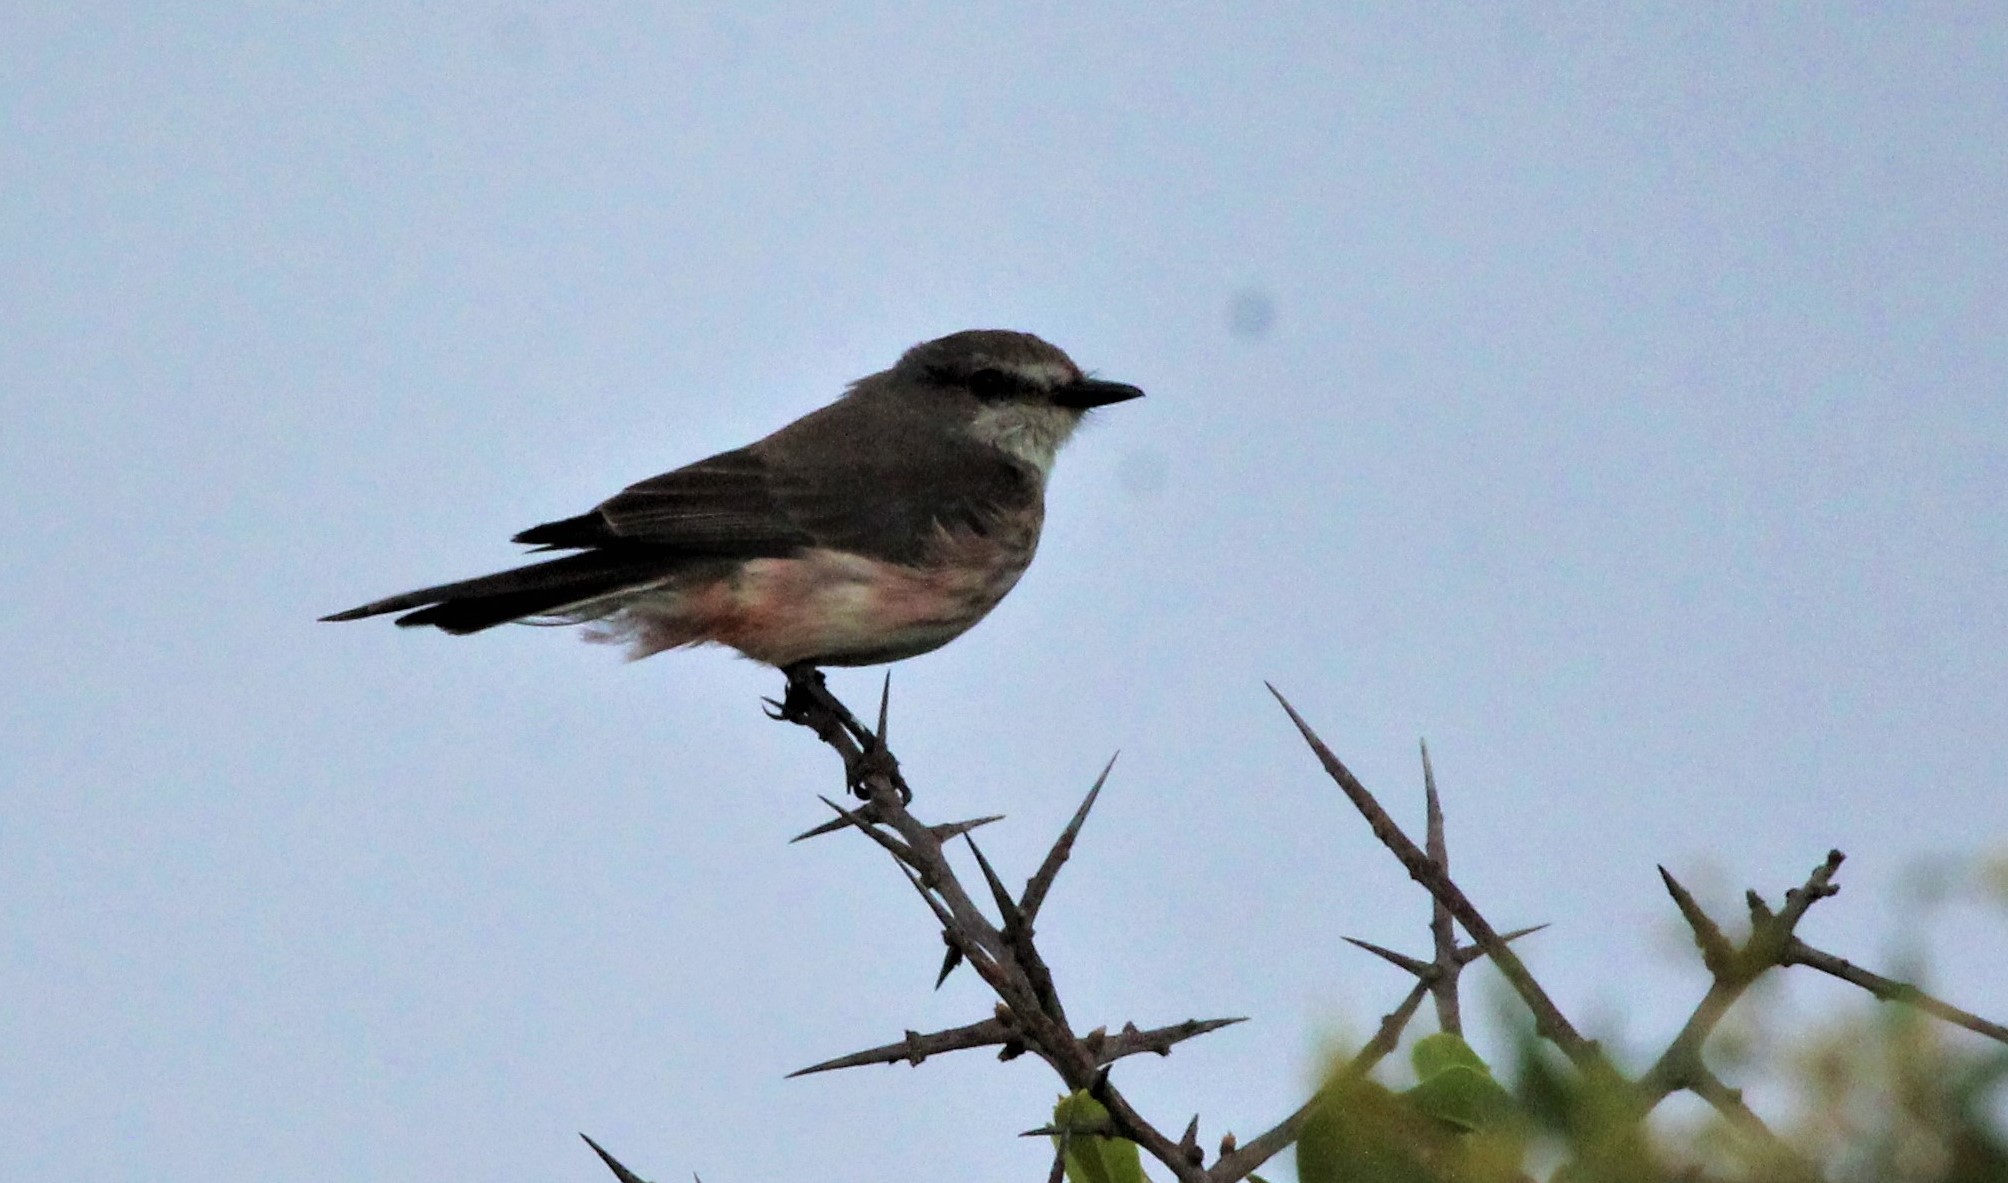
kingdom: Animalia
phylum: Chordata
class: Aves
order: Passeriformes
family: Tyrannidae
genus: Pyrocephalus
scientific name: Pyrocephalus rubinus
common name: Vermilion flycatcher
